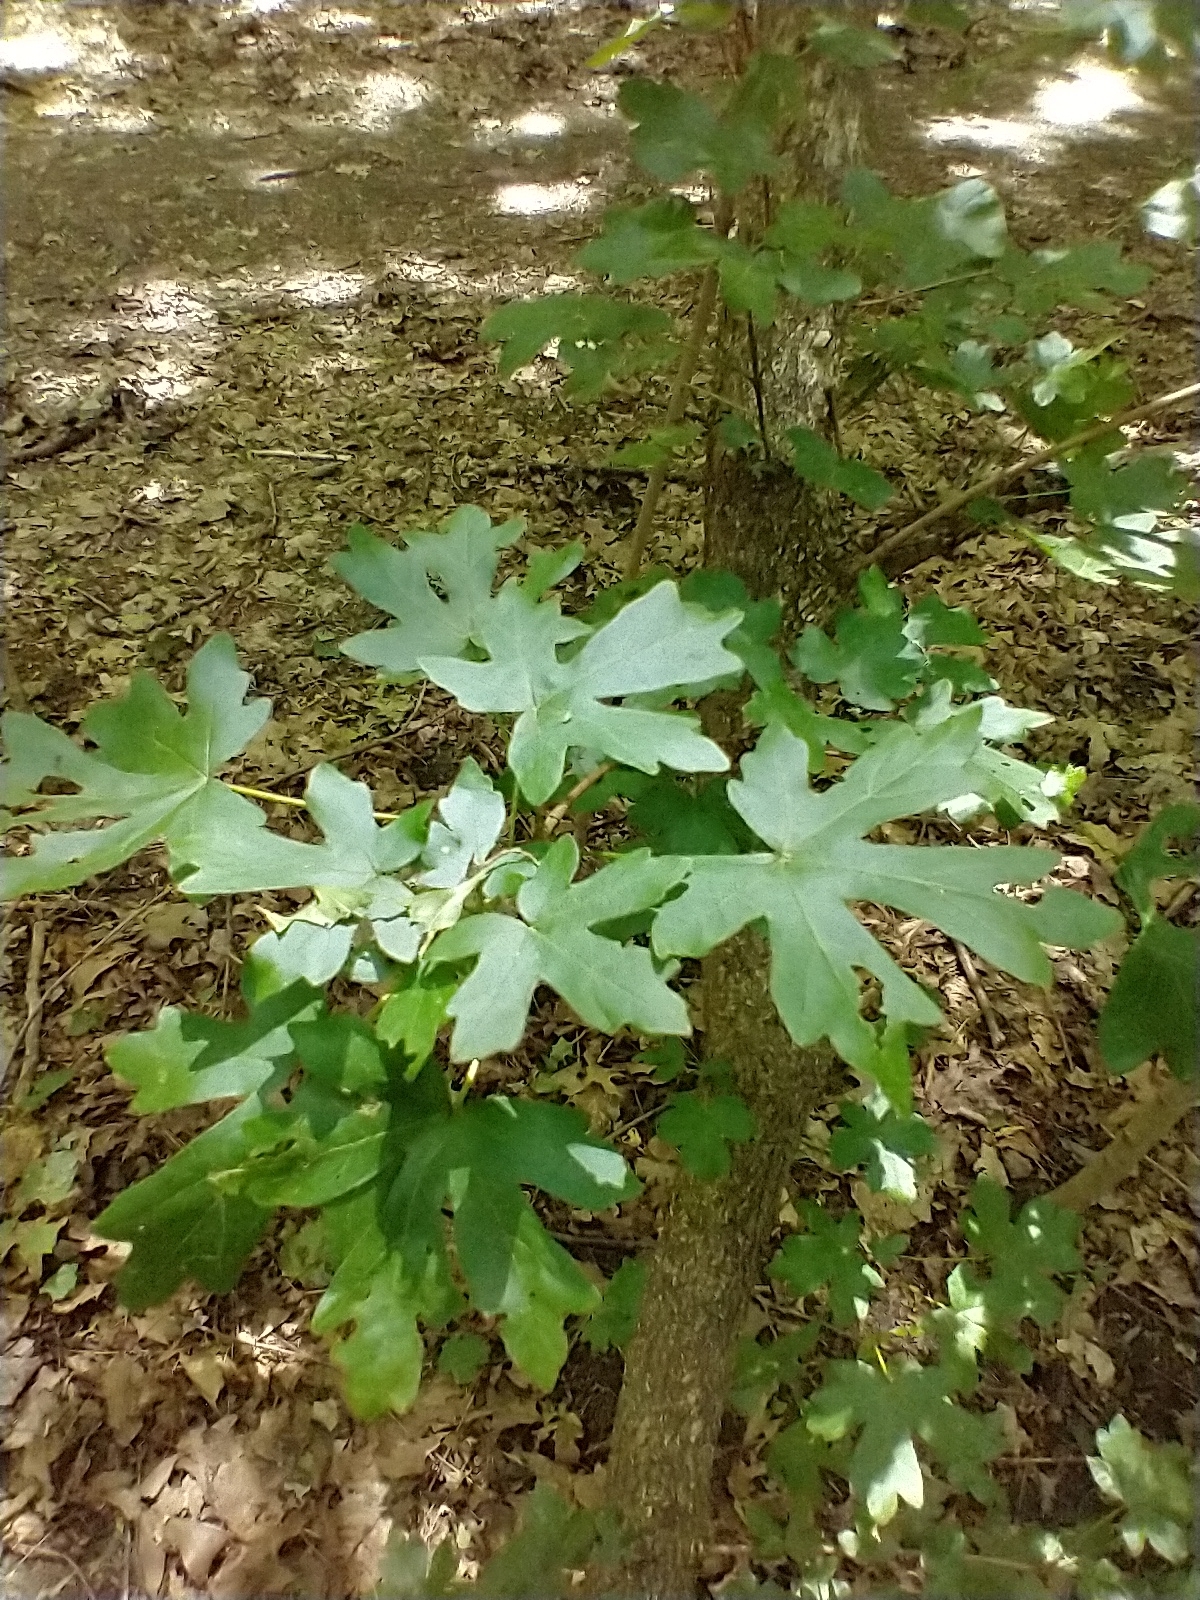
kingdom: Plantae
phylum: Tracheophyta
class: Magnoliopsida
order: Sapindales
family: Sapindaceae
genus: Acer
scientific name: Acer campestre
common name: Field maple
